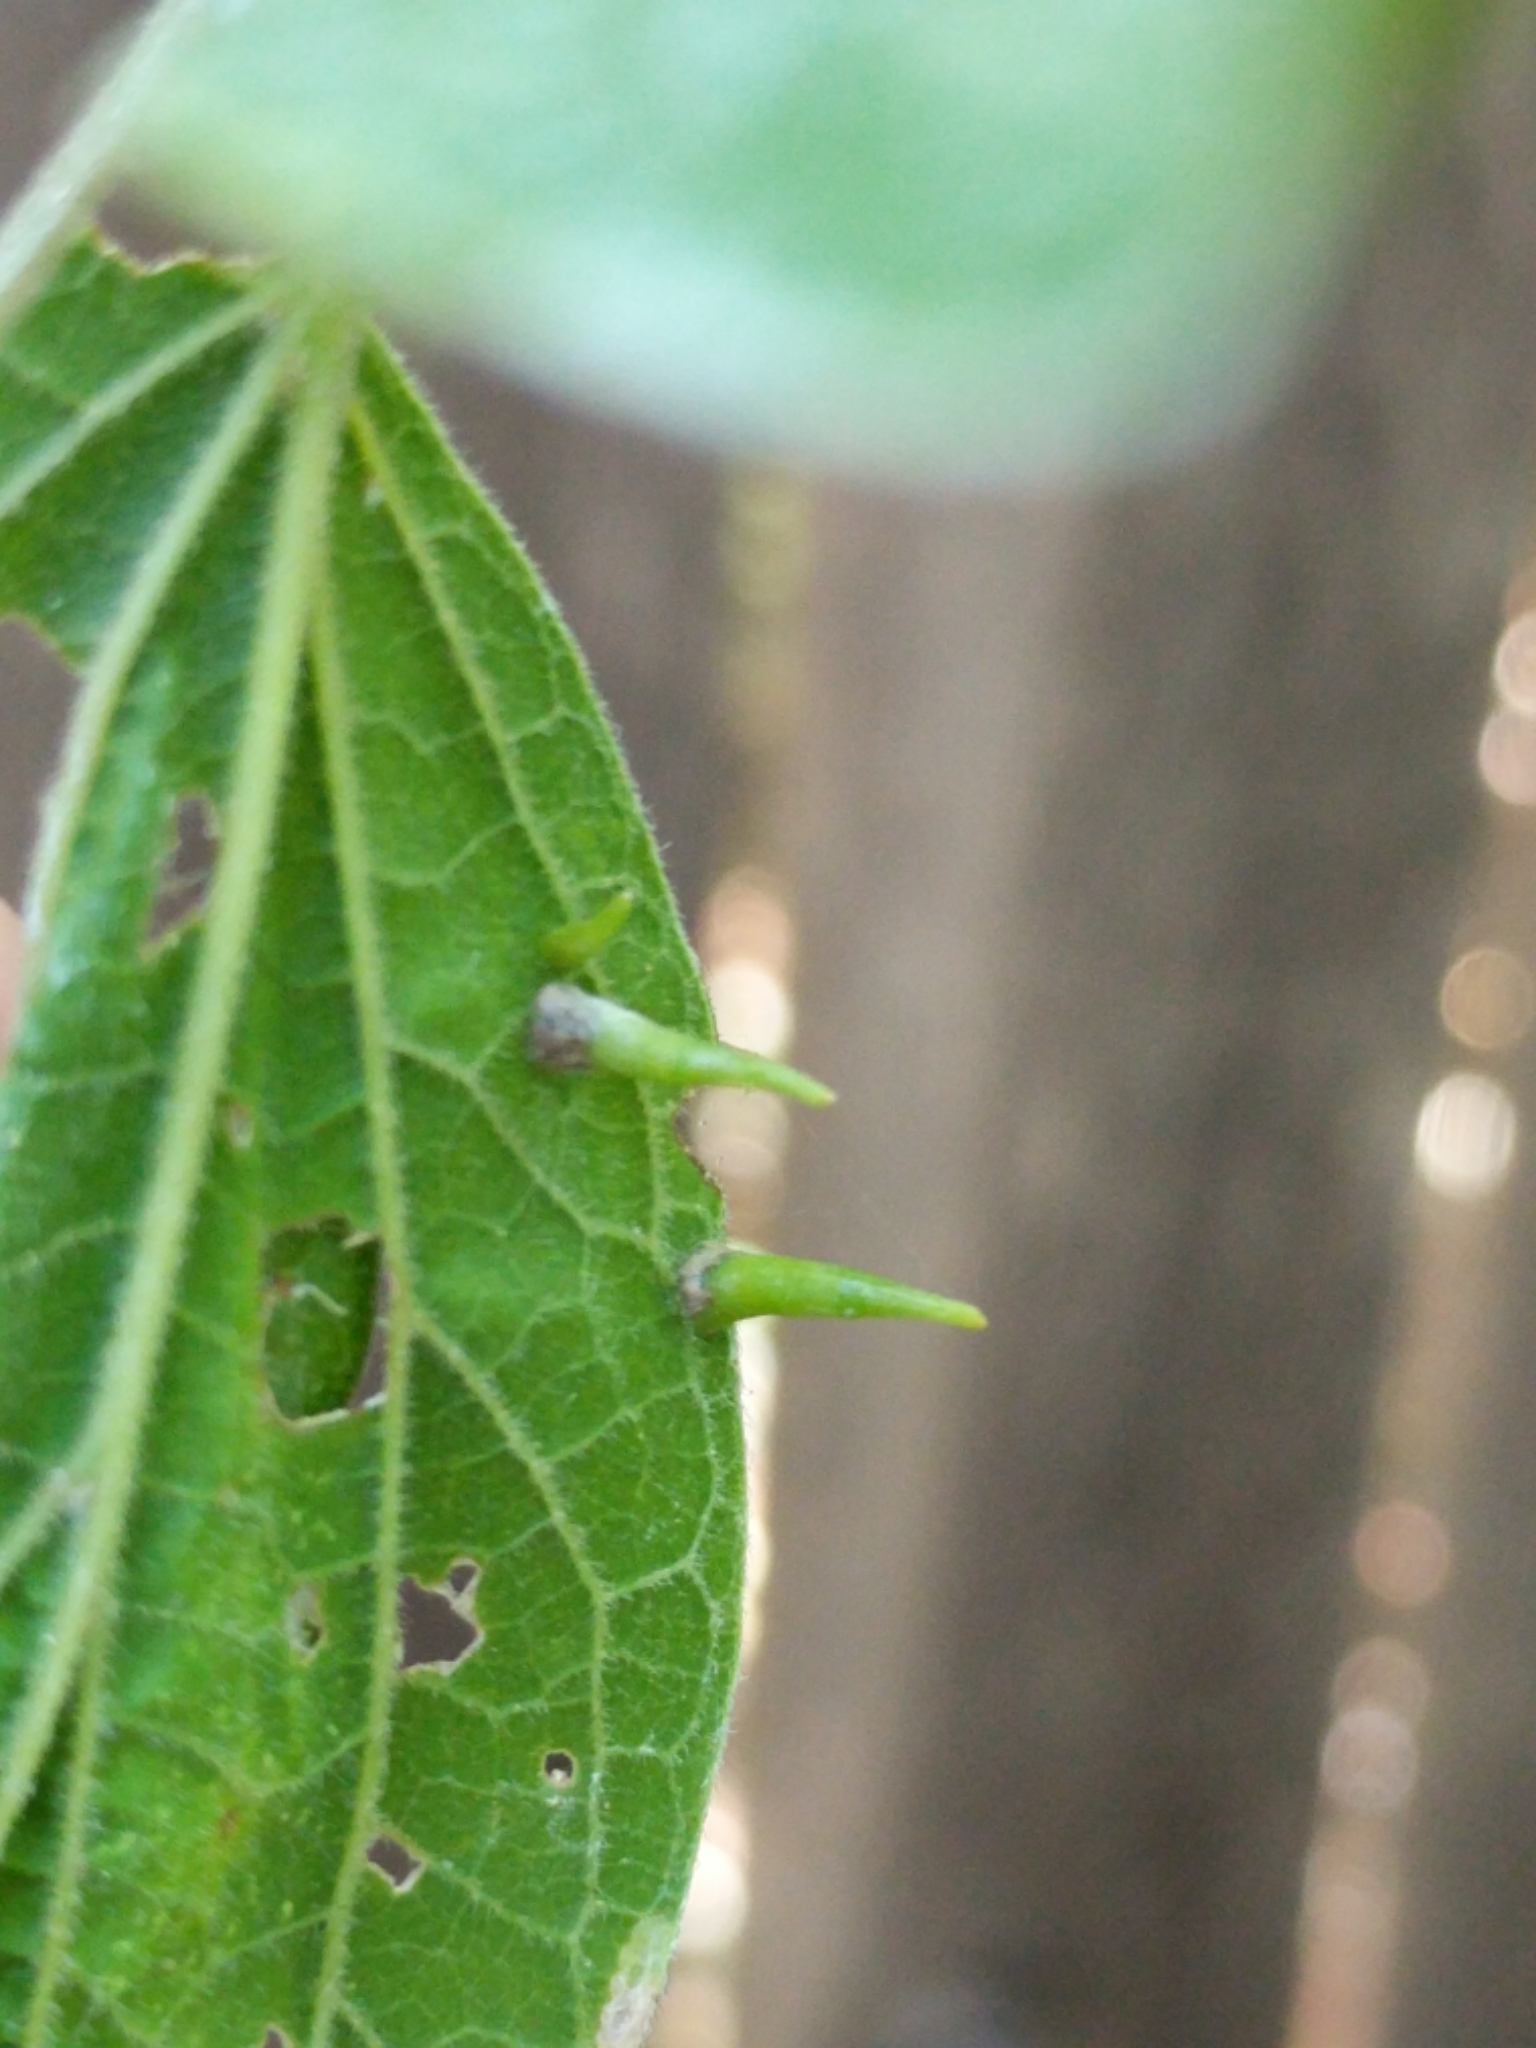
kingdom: Animalia
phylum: Arthropoda
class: Insecta
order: Diptera
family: Cecidomyiidae
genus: Celticecis
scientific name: Celticecis subulata
